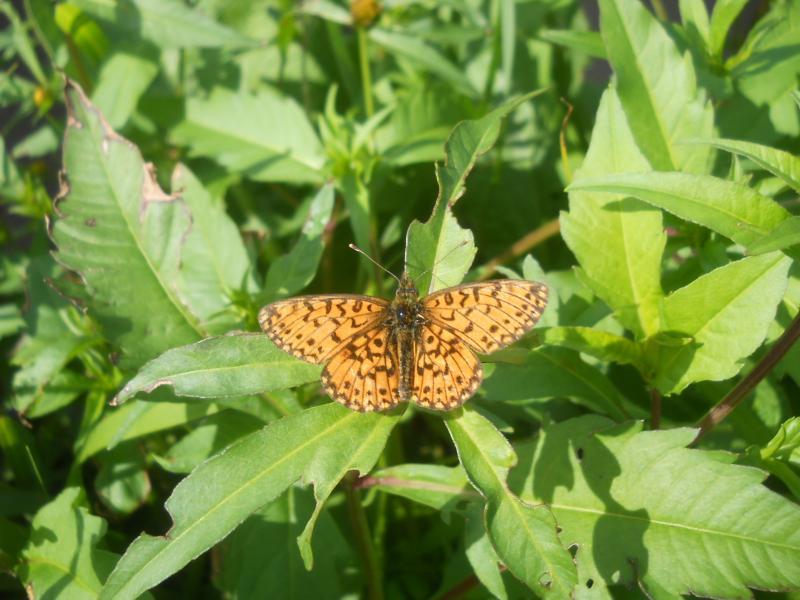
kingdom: Animalia
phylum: Arthropoda
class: Insecta
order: Lepidoptera
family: Nymphalidae
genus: Boloria
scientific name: Boloria selene
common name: Small pearl-bordered fritillary
